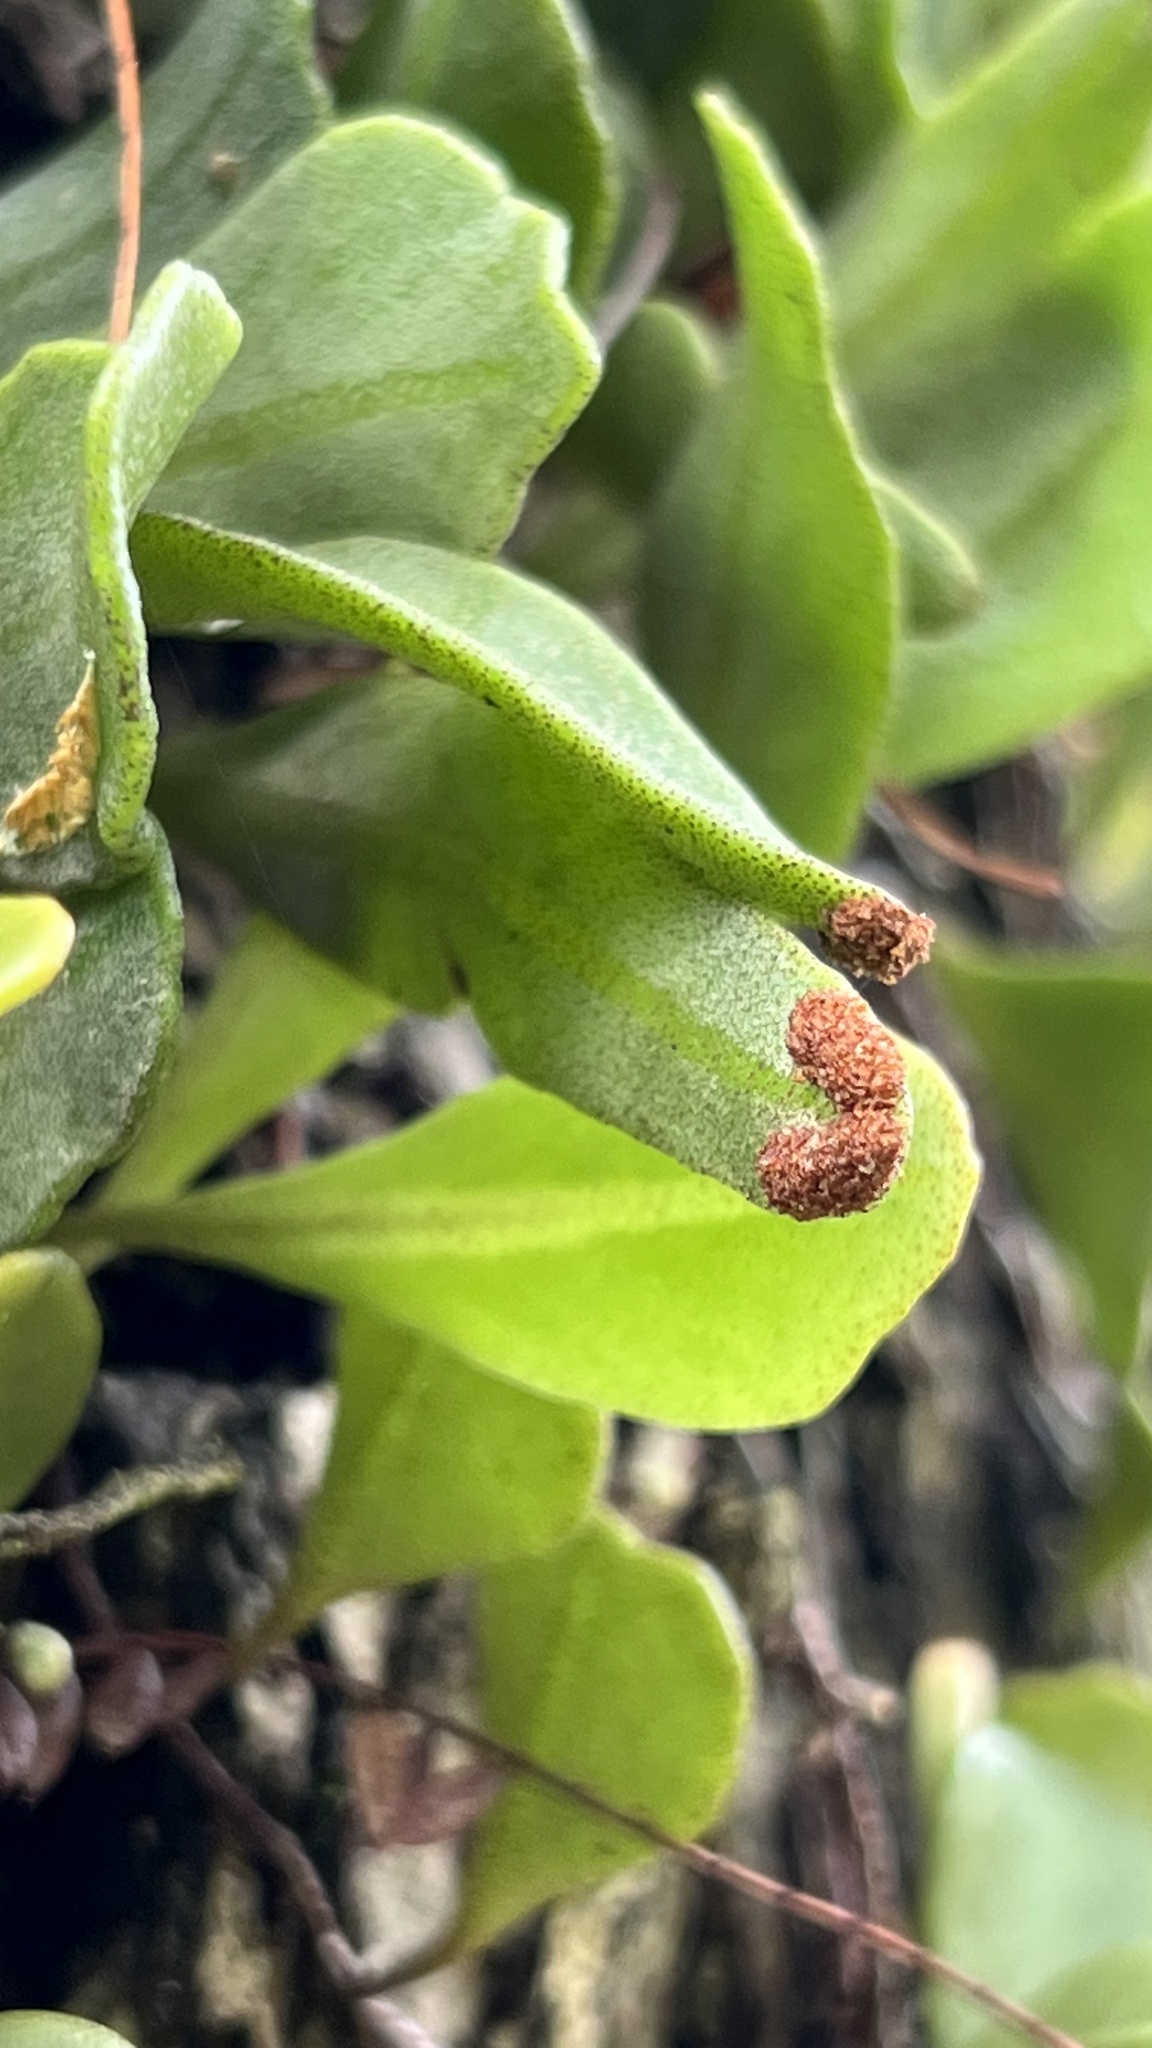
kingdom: Plantae
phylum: Tracheophyta
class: Polypodiopsida
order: Polypodiales
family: Polypodiaceae
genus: Pyrrosia
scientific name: Pyrrosia confluens
